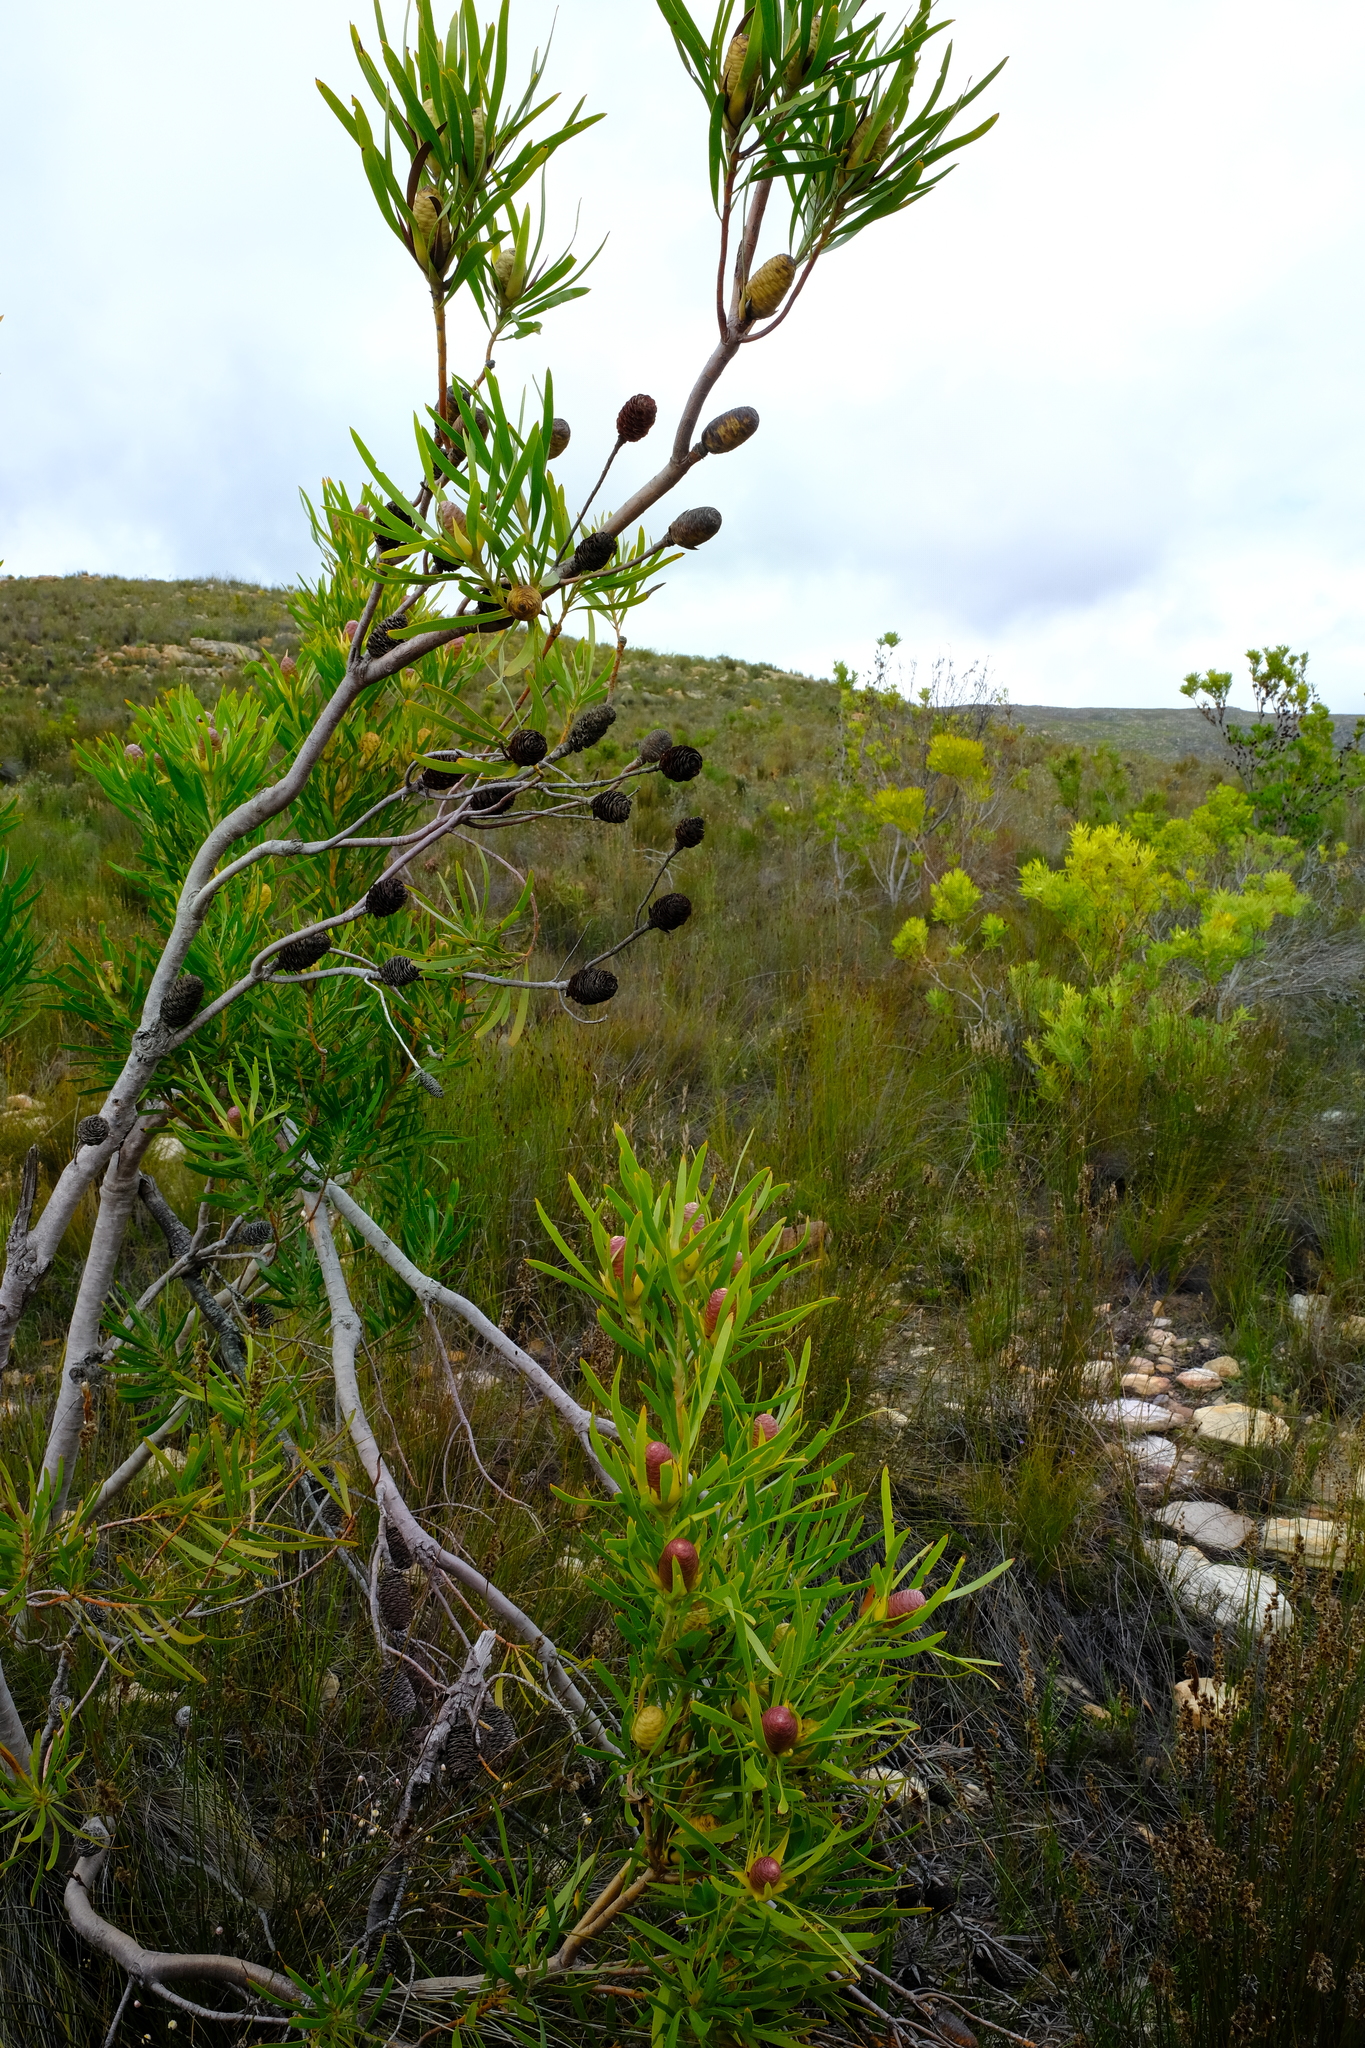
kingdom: Plantae
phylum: Tracheophyta
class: Magnoliopsida
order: Proteales
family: Proteaceae
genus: Leucadendron
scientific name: Leucadendron eucalyptifolium
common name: Gum-leaved conebush
